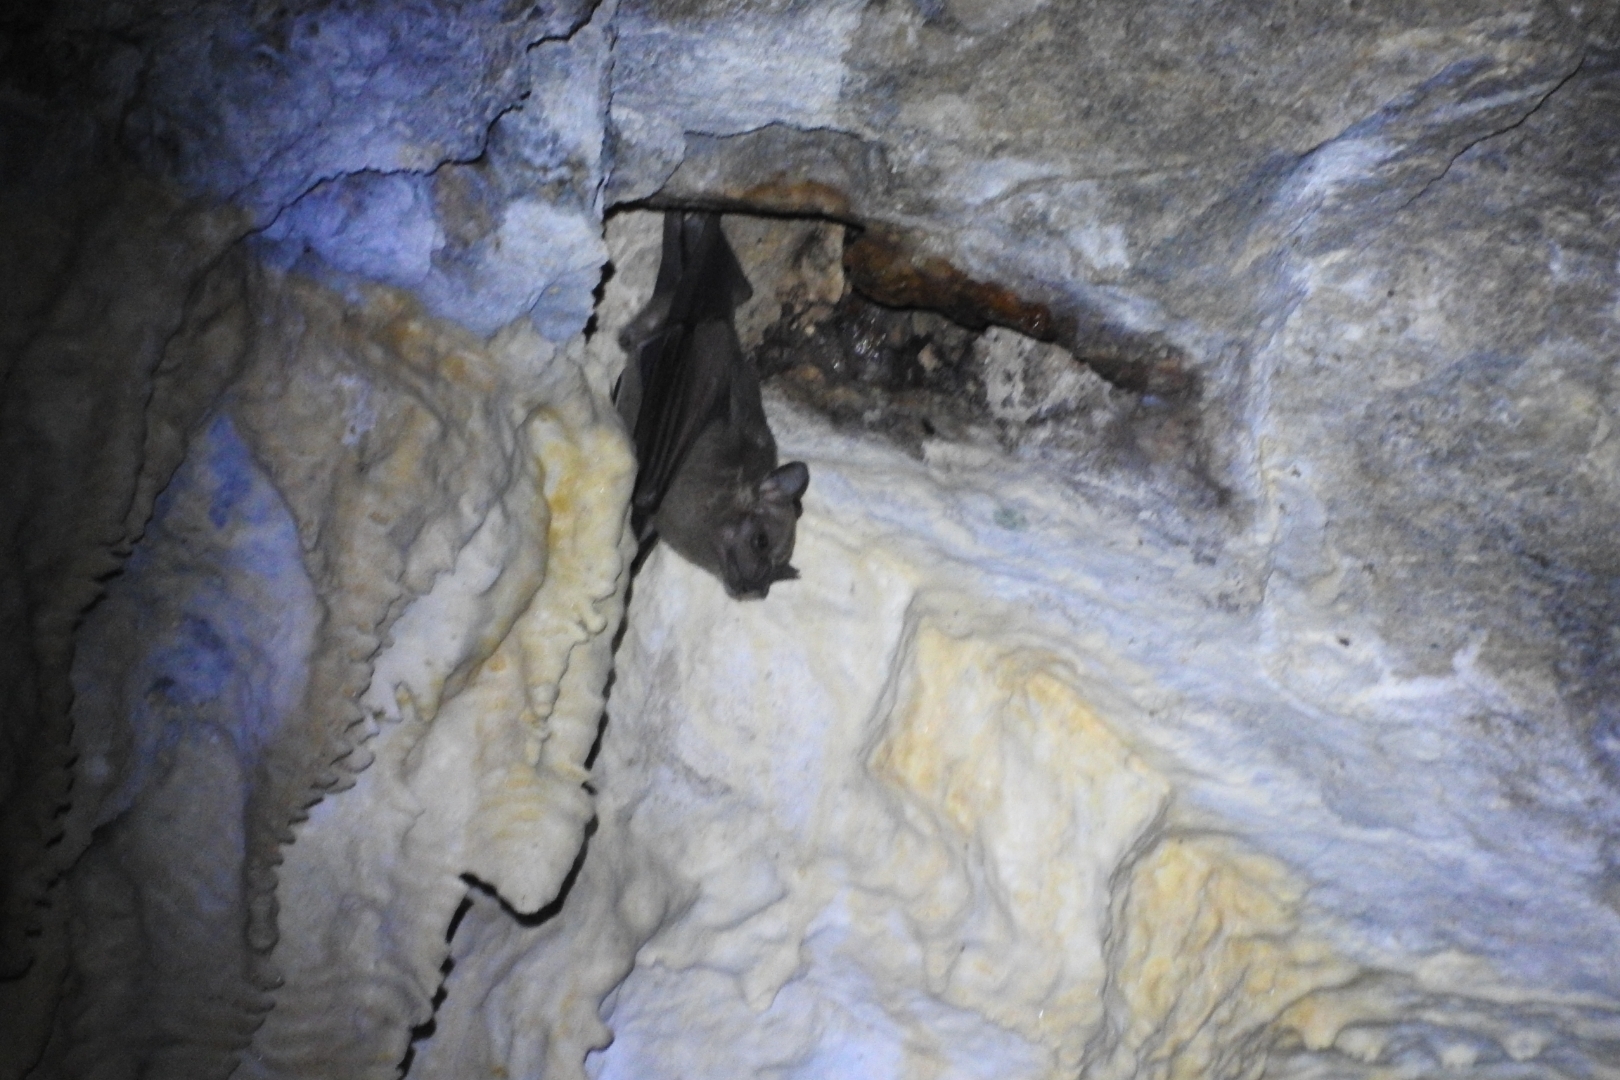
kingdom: Animalia
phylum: Chordata
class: Mammalia
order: Chiroptera
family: Phyllostomidae
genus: Artibeus
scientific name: Artibeus jamaicensis
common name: Jamaican fruit-eating bat
